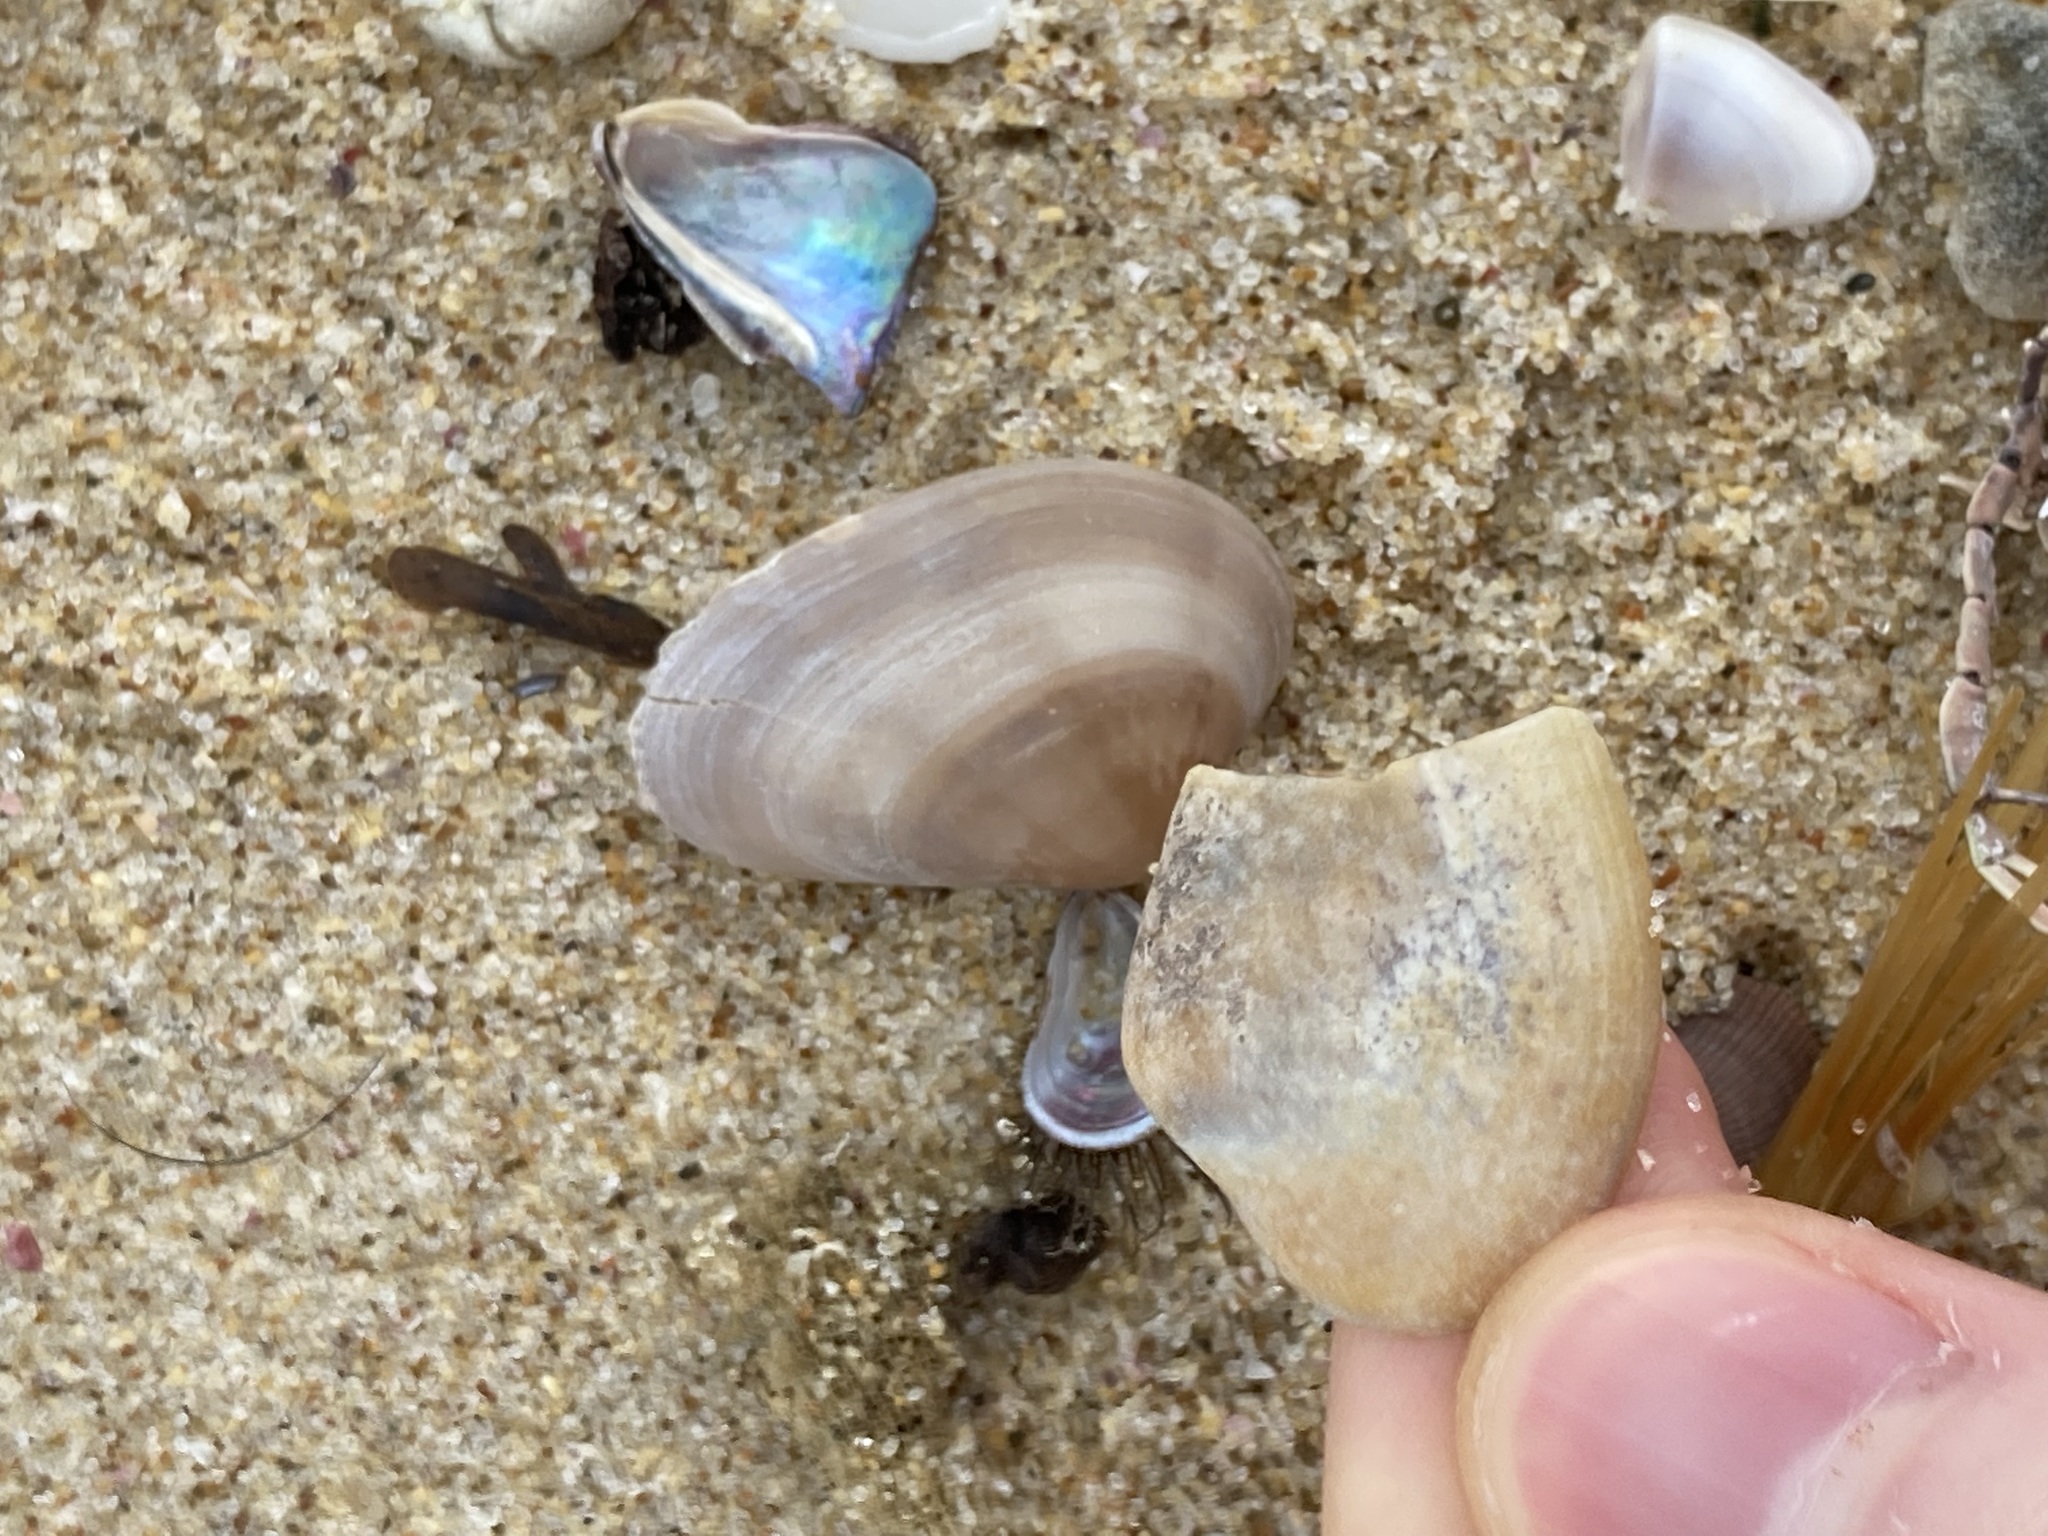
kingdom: Animalia
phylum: Mollusca
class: Bivalvia
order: Venerida
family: Veneridae
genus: Eumarcia
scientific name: Eumarcia fumigata
